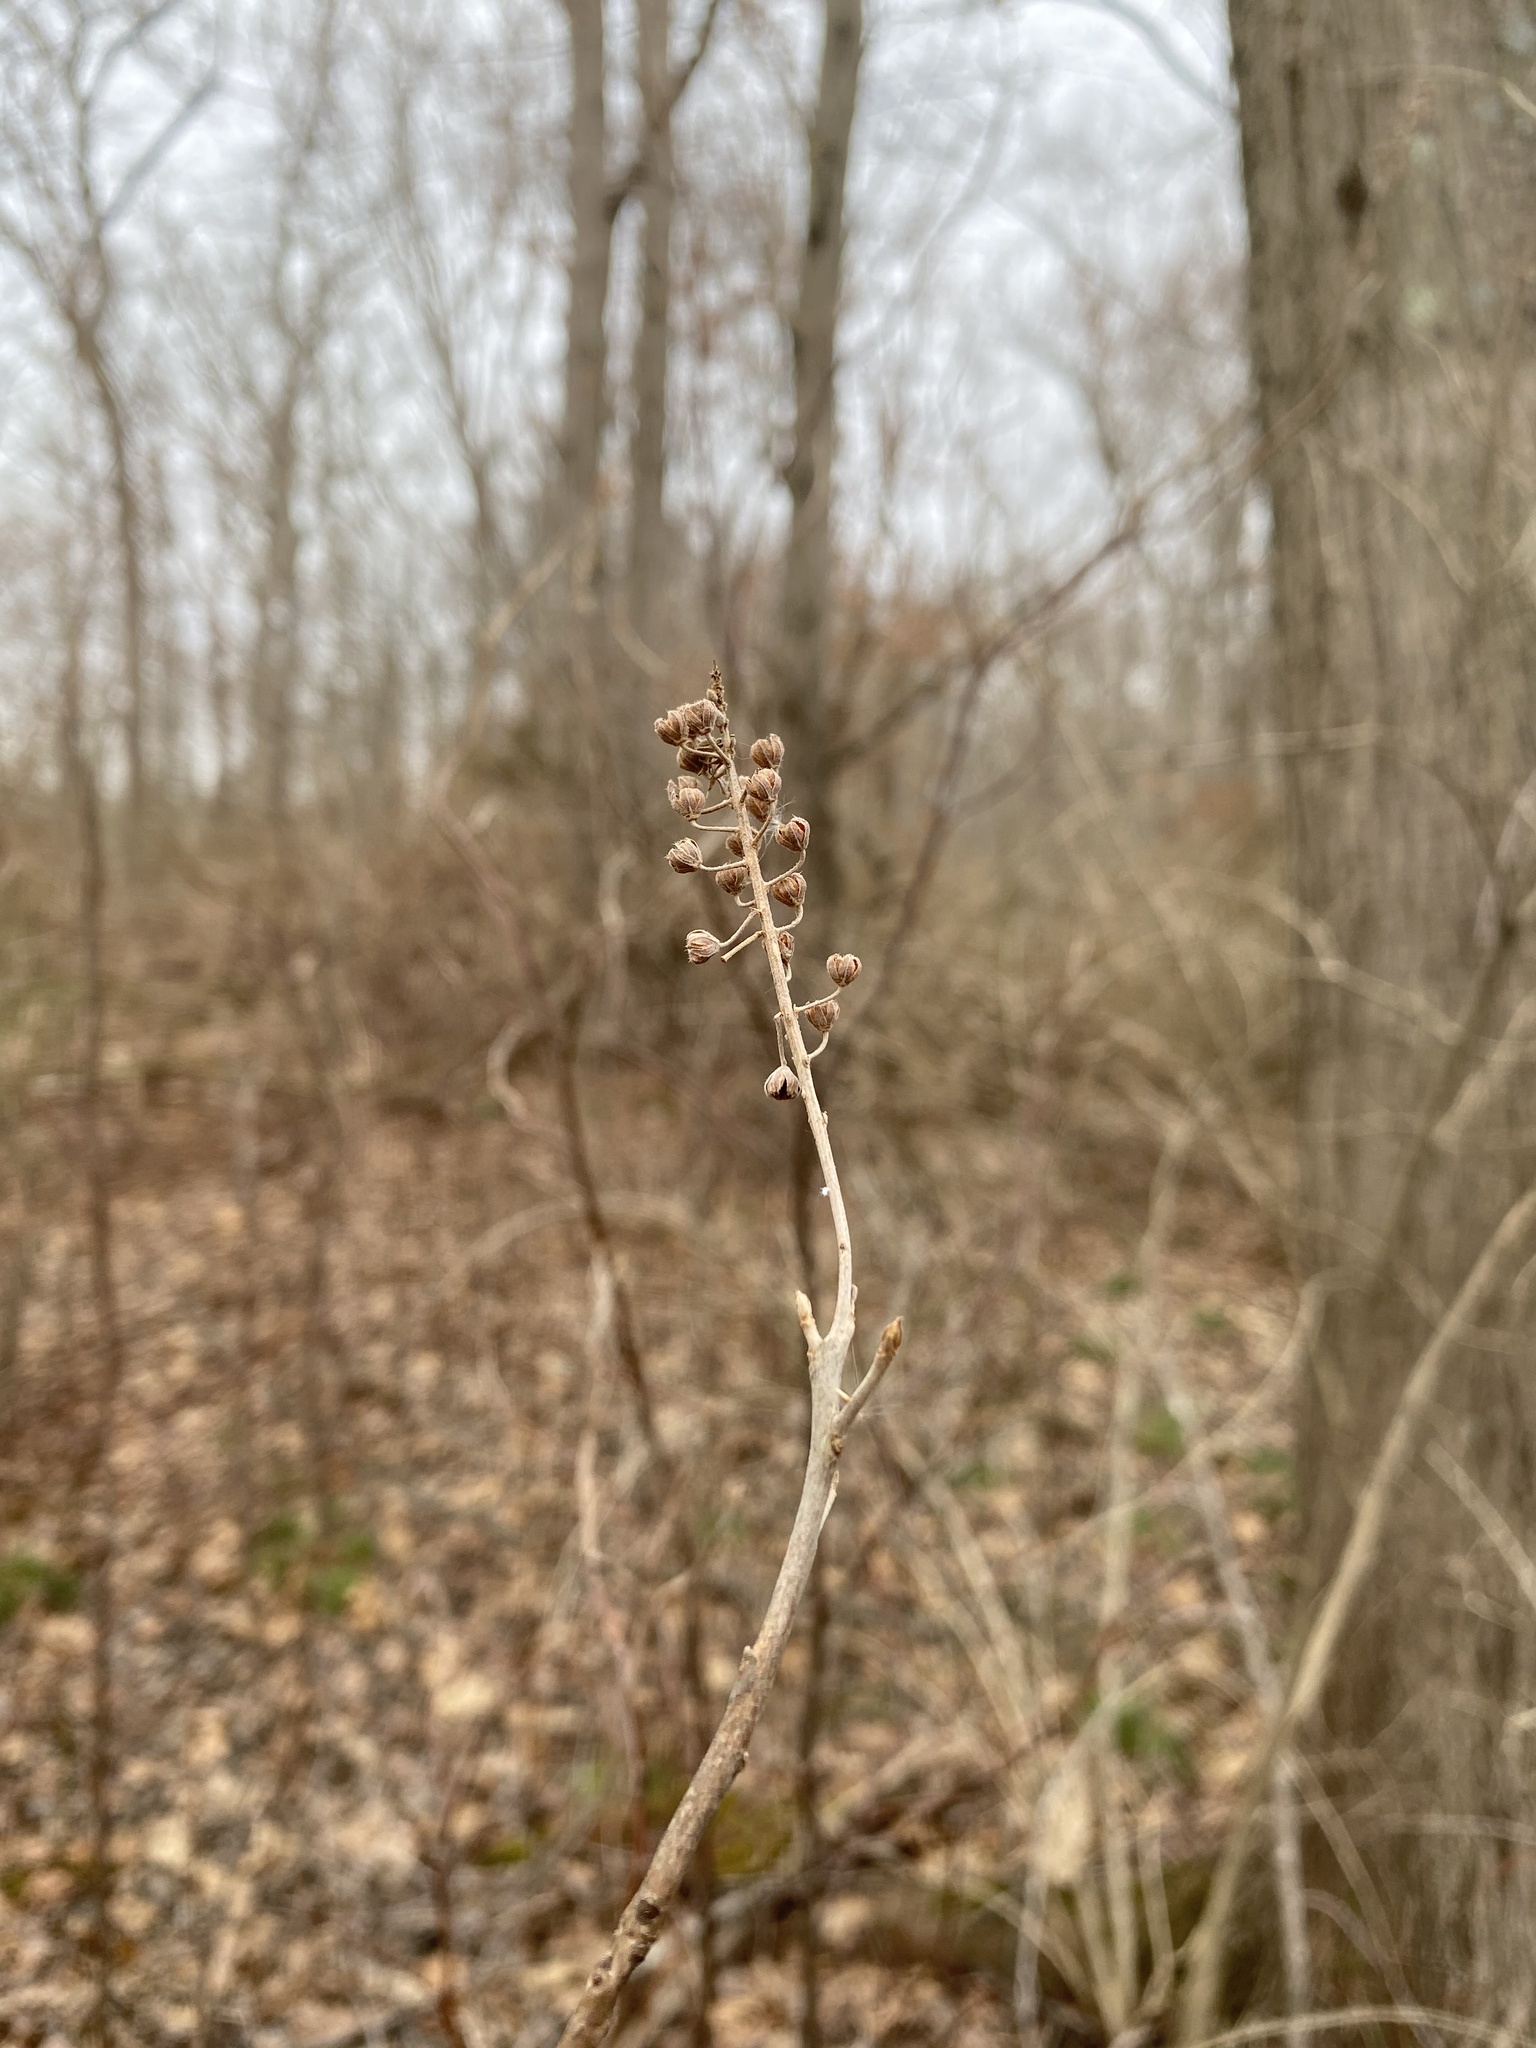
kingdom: Plantae
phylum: Tracheophyta
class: Magnoliopsida
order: Ericales
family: Clethraceae
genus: Clethra
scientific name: Clethra alnifolia
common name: Sweet pepperbush
